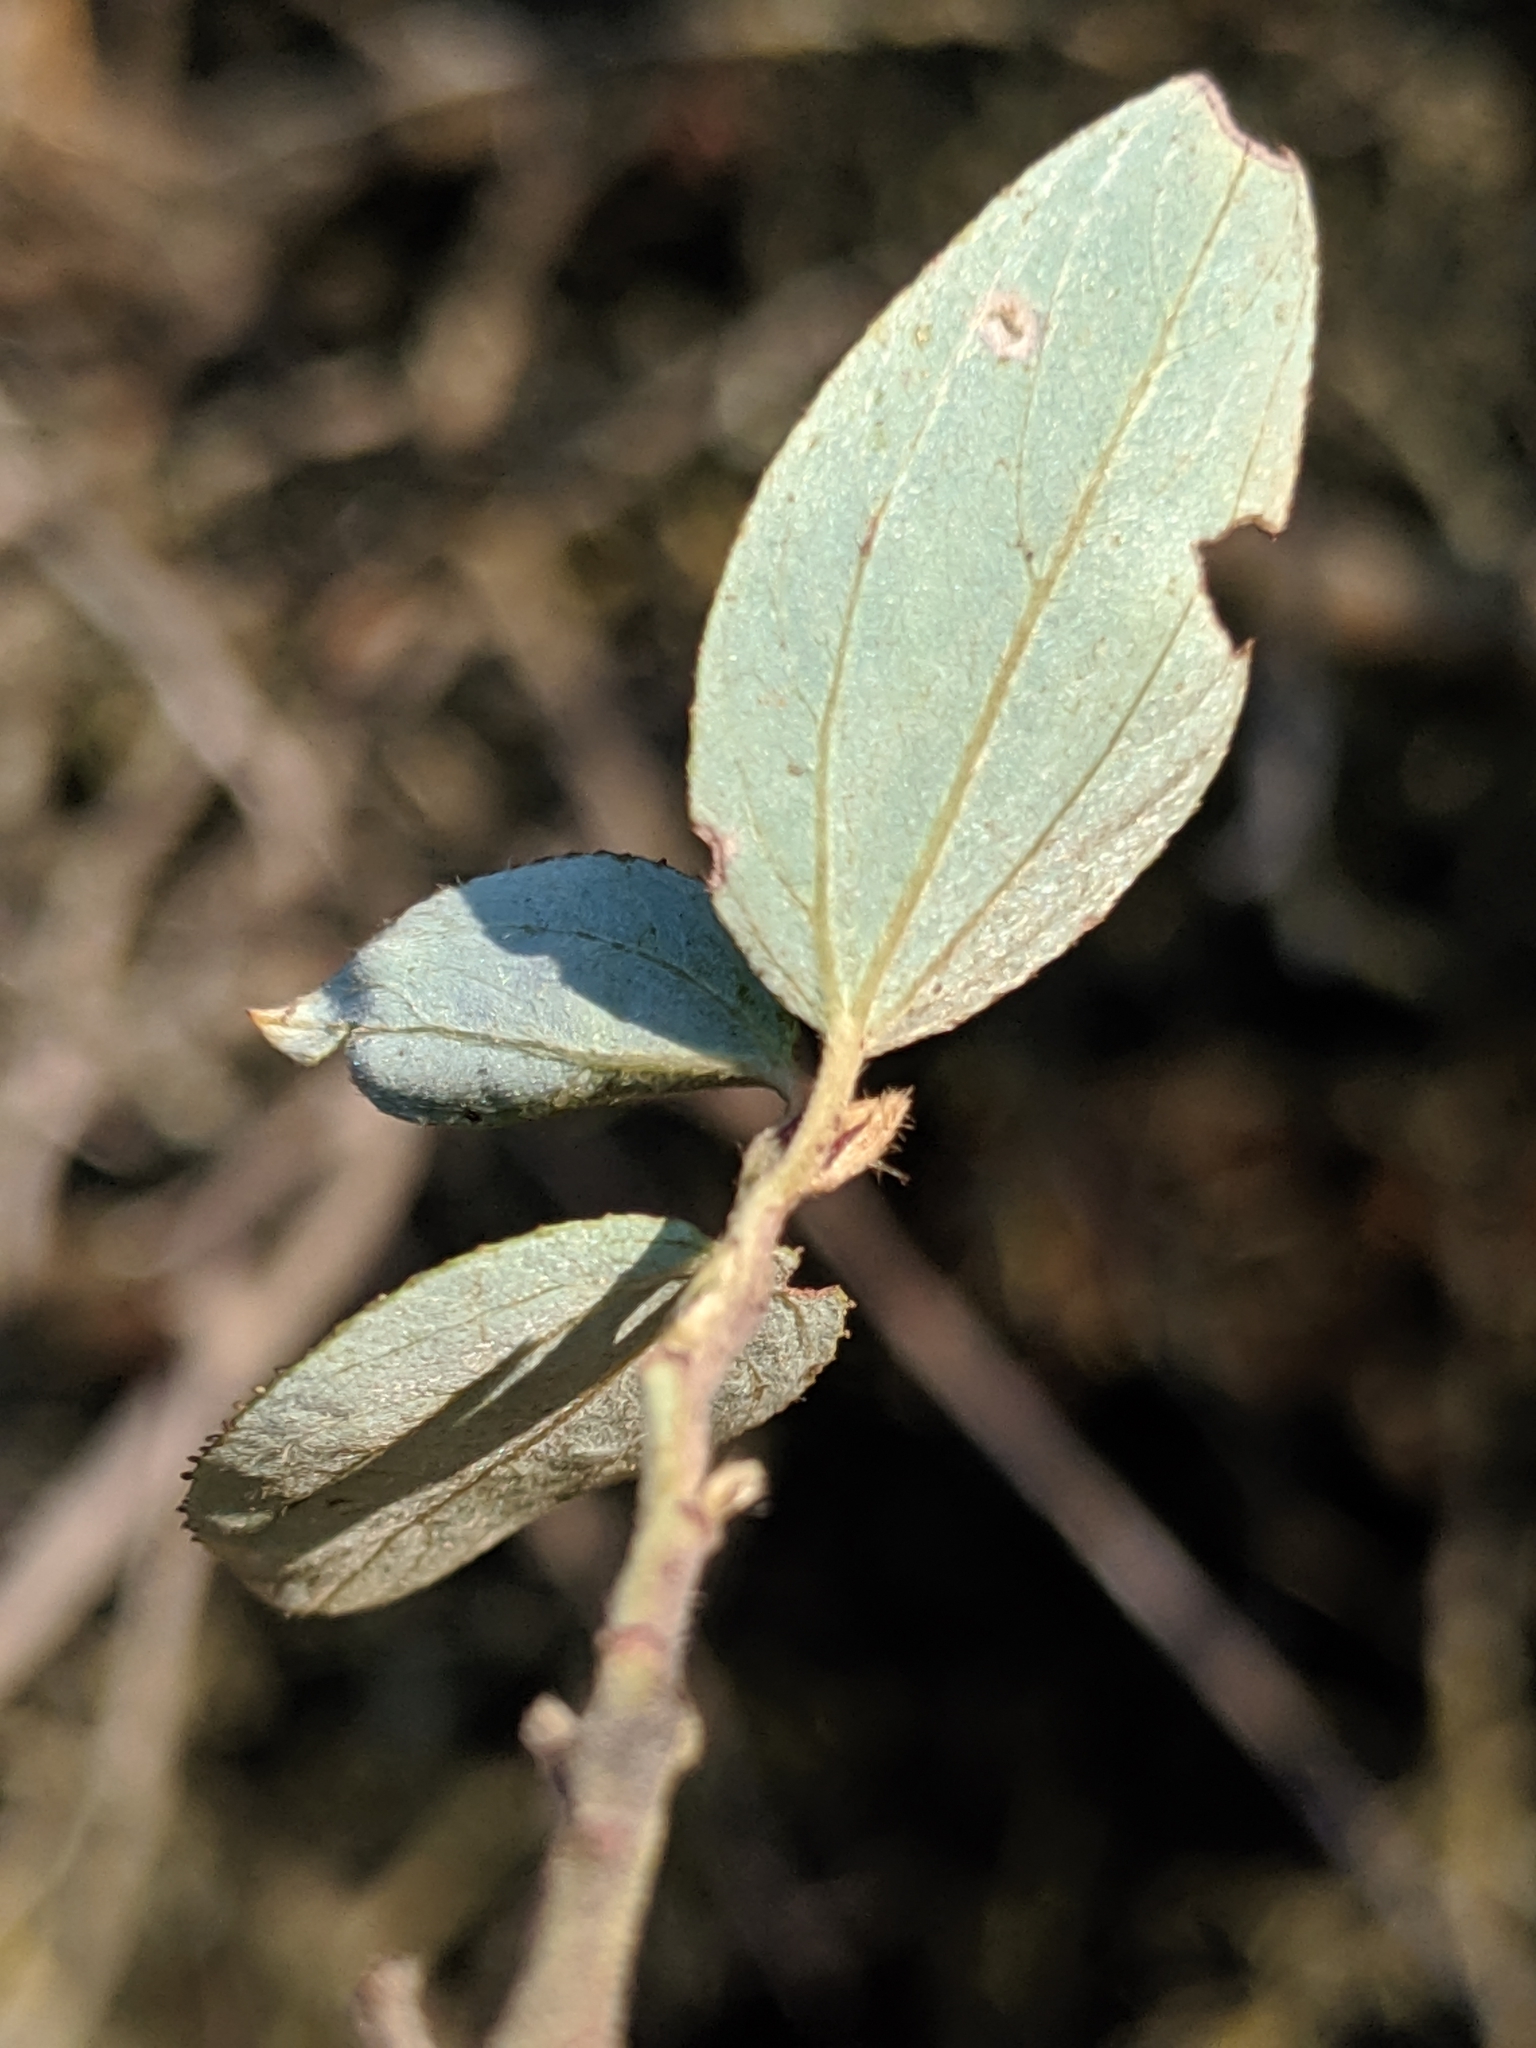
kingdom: Plantae
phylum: Tracheophyta
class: Magnoliopsida
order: Rosales
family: Rhamnaceae
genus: Ceanothus
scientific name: Ceanothus sorediatus
